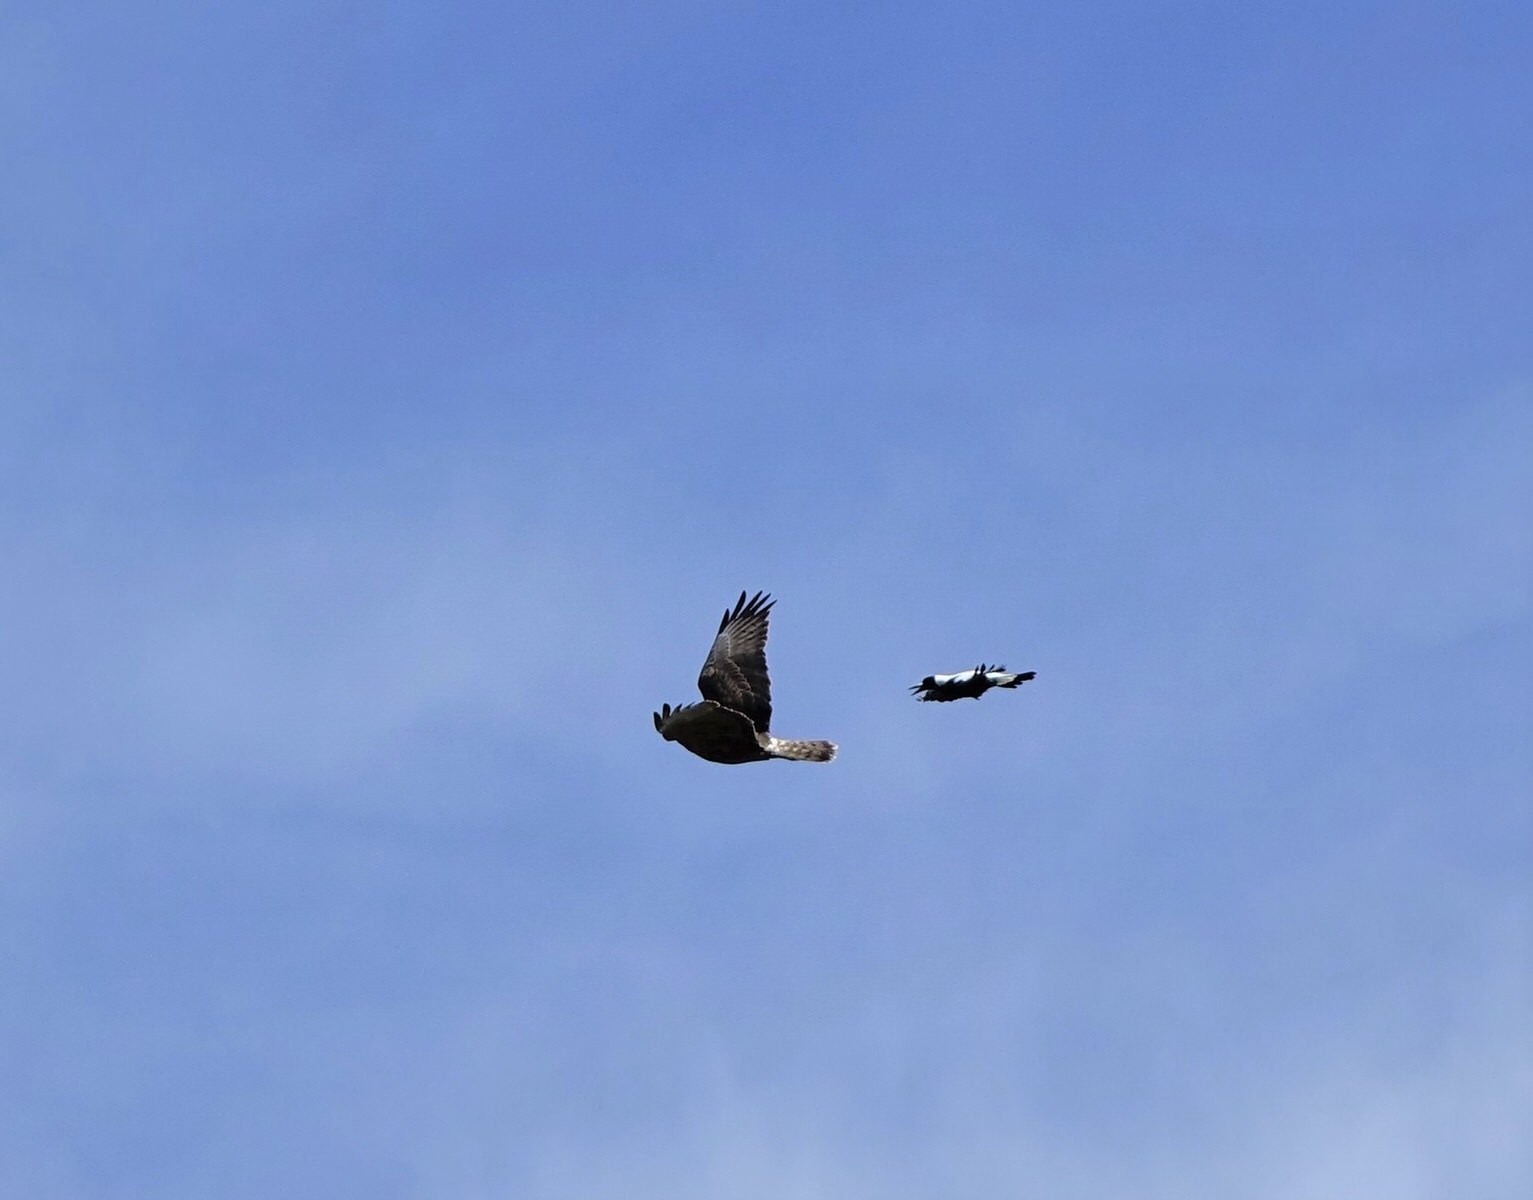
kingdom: Animalia
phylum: Chordata
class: Aves
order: Accipitriformes
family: Accipitridae
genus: Circus
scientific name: Circus approximans
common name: Swamp harrier
